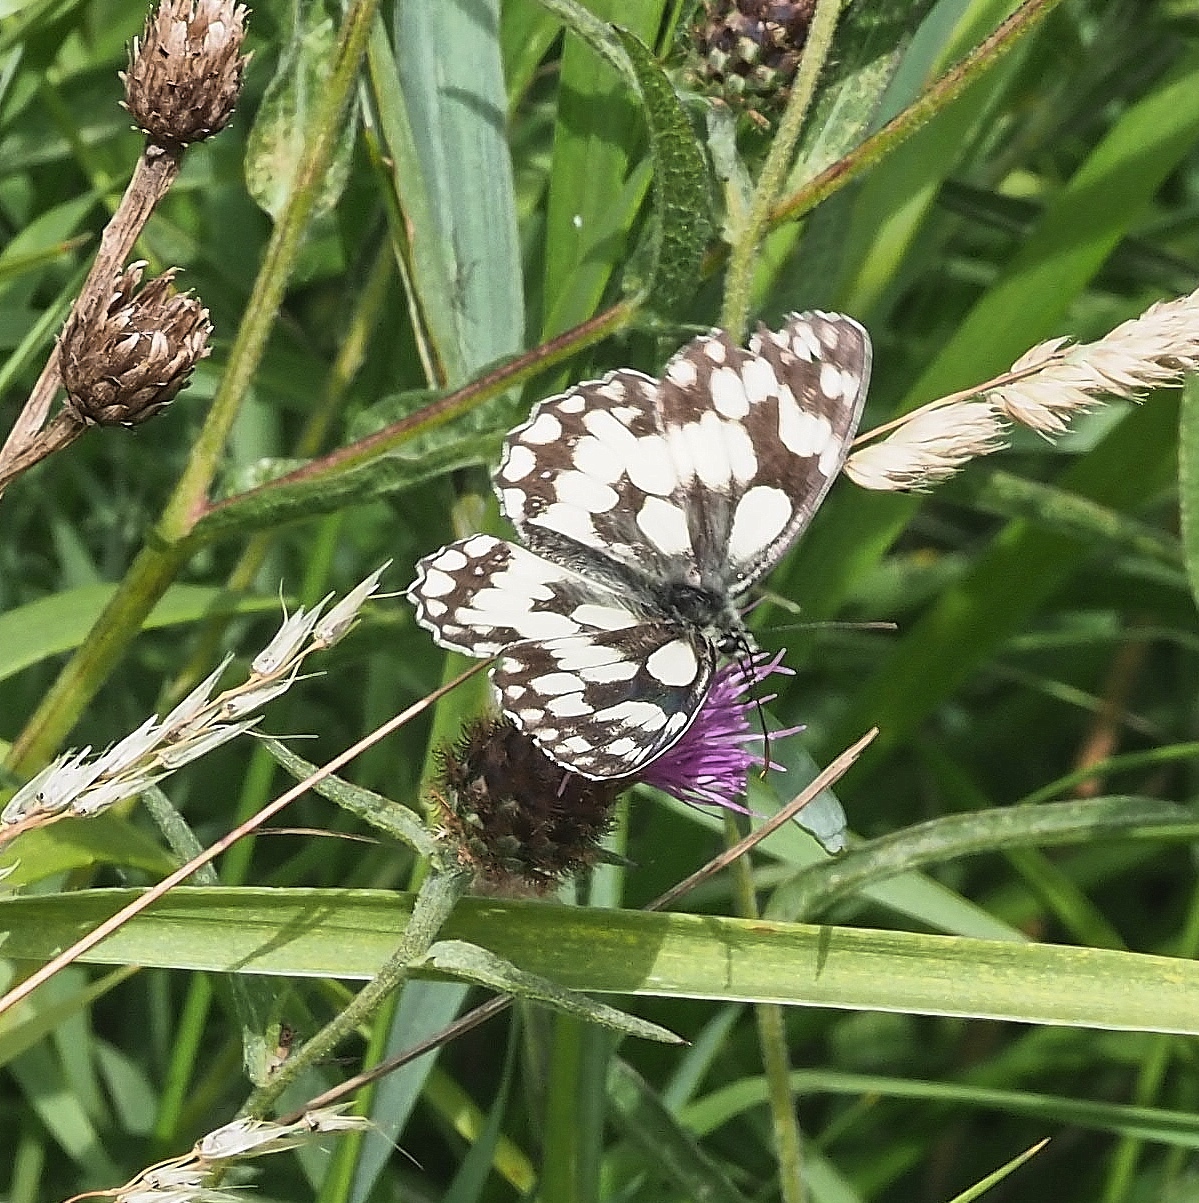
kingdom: Animalia
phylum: Arthropoda
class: Insecta
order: Lepidoptera
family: Nymphalidae
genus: Melanargia
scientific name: Melanargia galathea
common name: Marbled white
